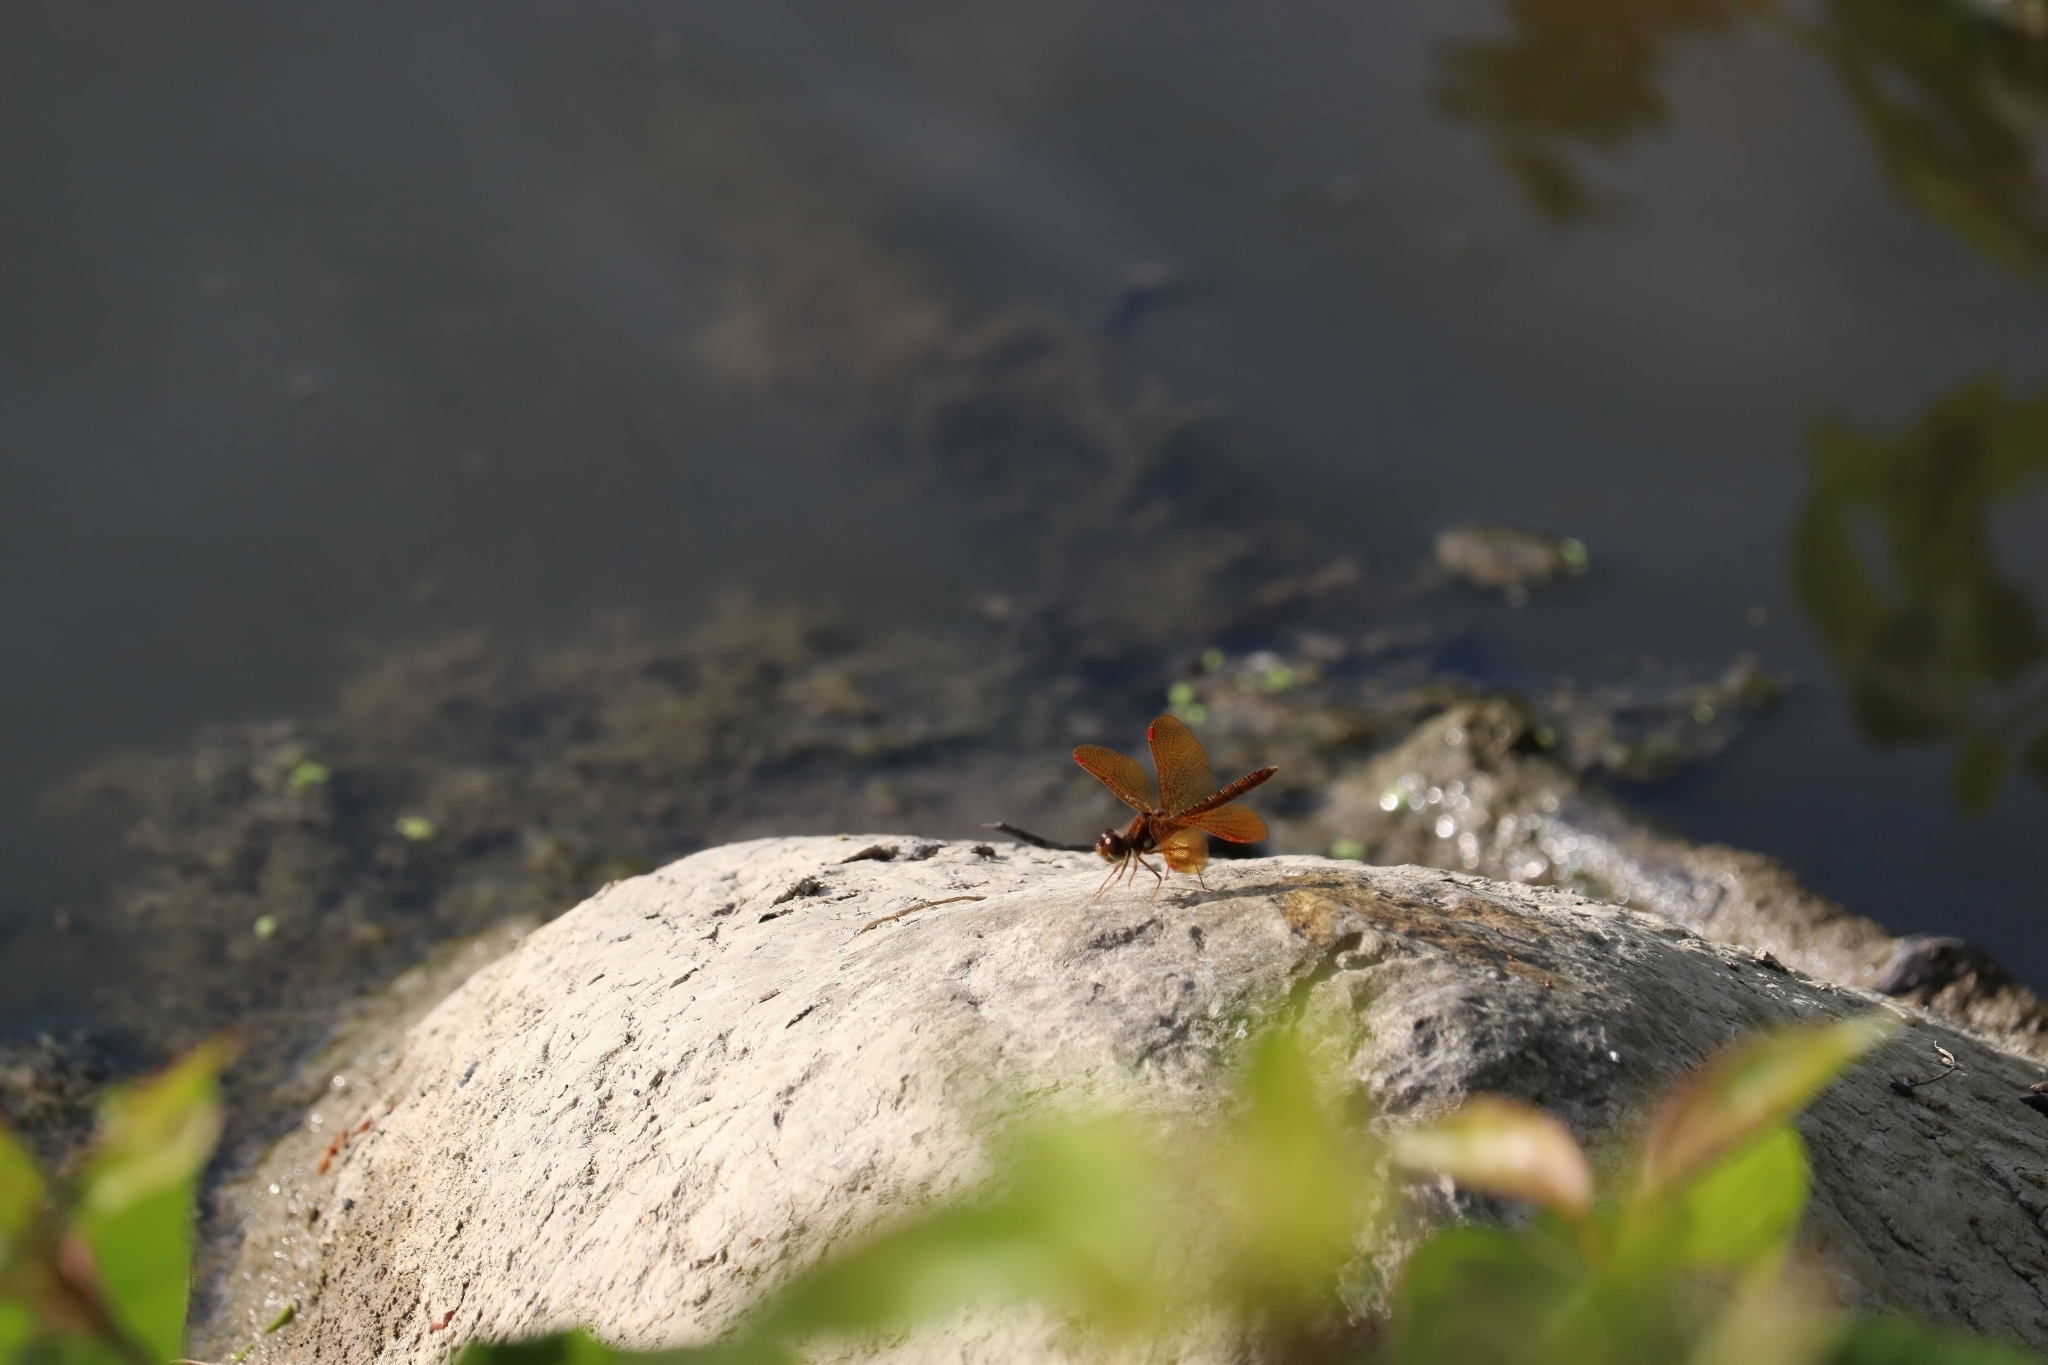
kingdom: Animalia
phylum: Arthropoda
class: Insecta
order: Odonata
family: Libellulidae
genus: Perithemis
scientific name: Perithemis tenera
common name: Eastern amberwing
